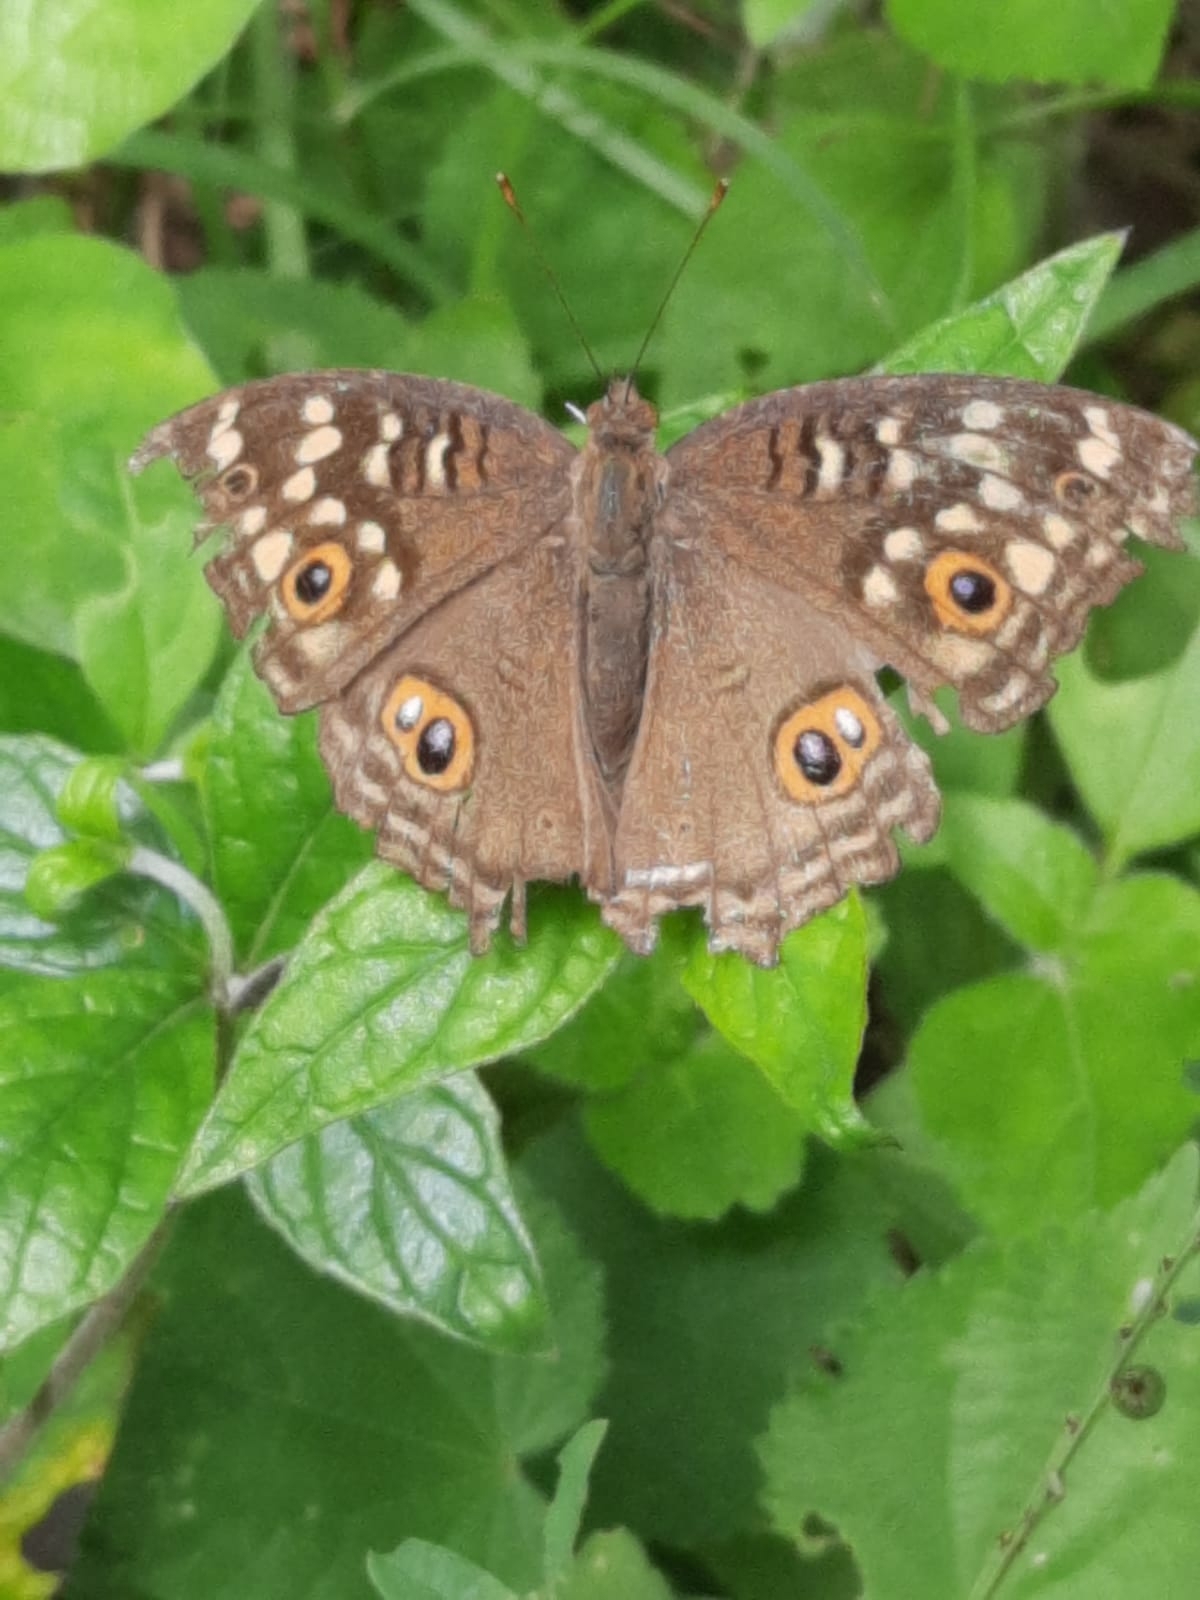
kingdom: Animalia
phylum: Arthropoda
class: Insecta
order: Lepidoptera
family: Nymphalidae
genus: Junonia
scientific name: Junonia lemonias
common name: Lemon pansy
